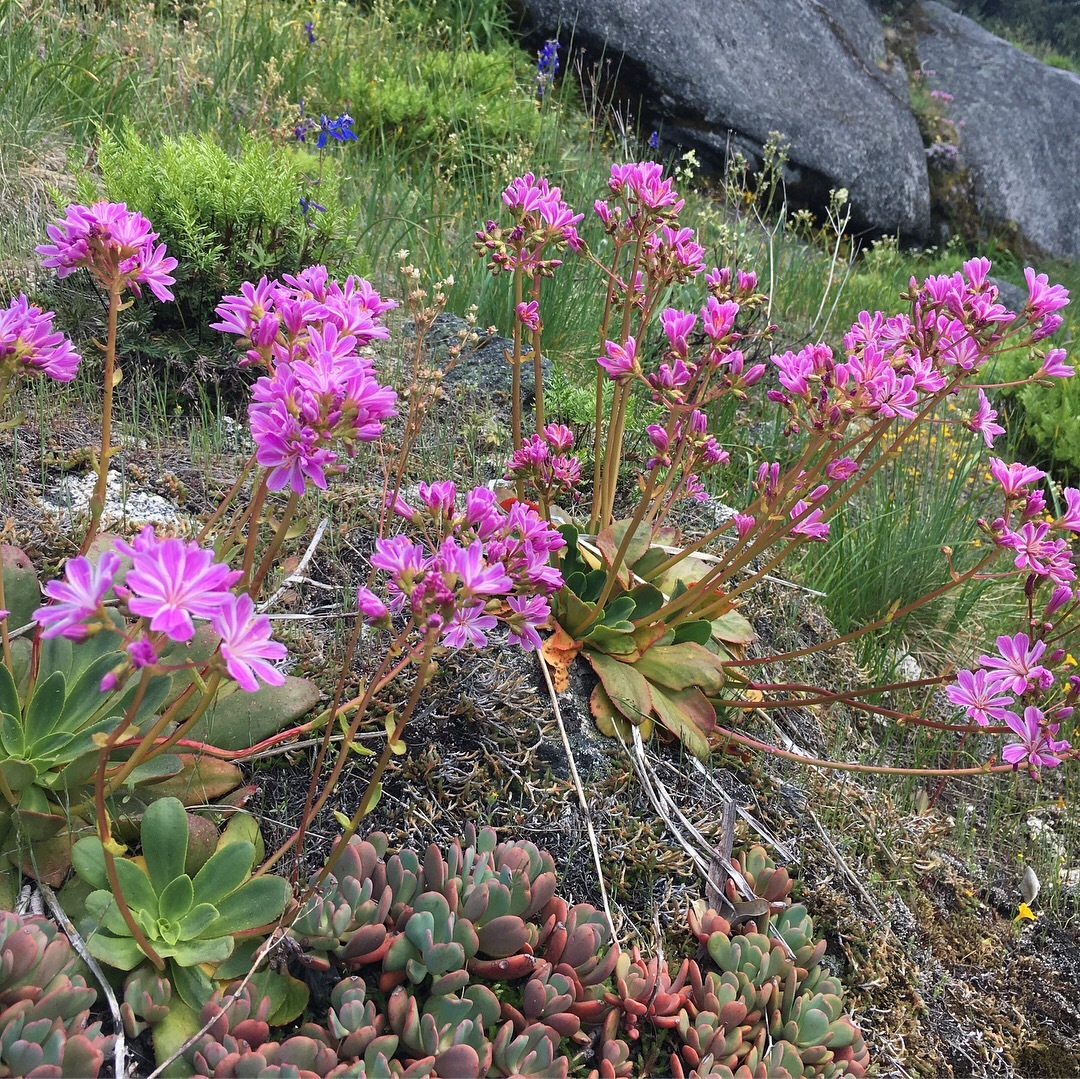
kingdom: Plantae
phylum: Tracheophyta
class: Magnoliopsida
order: Caryophyllales
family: Montiaceae
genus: Lewisia
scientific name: Lewisia cotyledon
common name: Siskiyou lewisia
